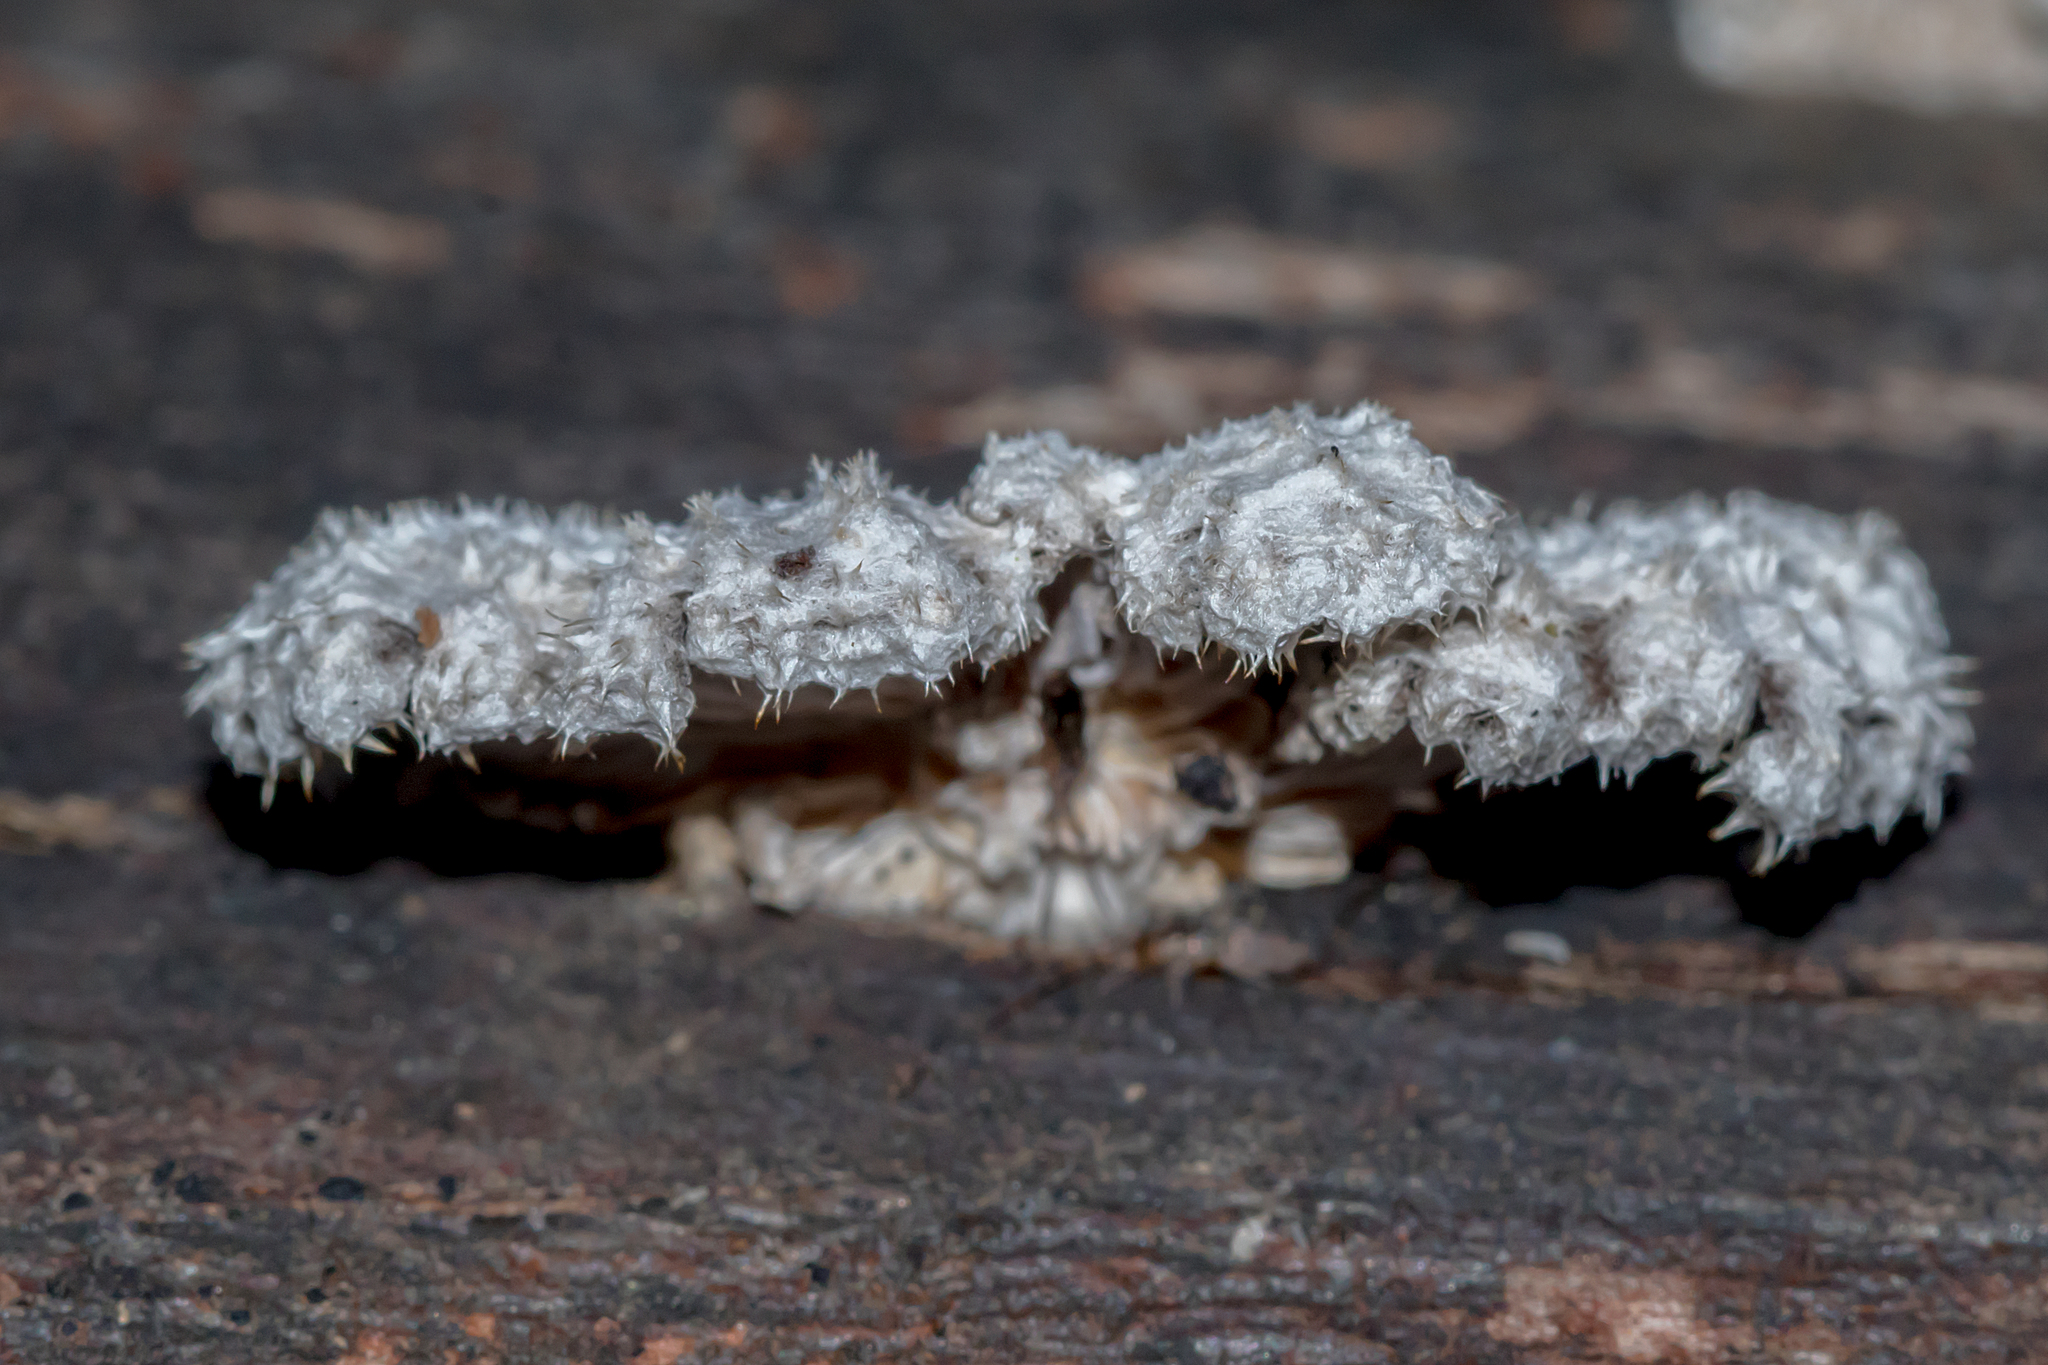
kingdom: Fungi
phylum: Basidiomycota
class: Agaricomycetes
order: Agaricales
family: Schizophyllaceae
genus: Schizophyllum
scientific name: Schizophyllum commune
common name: Common porecrust
